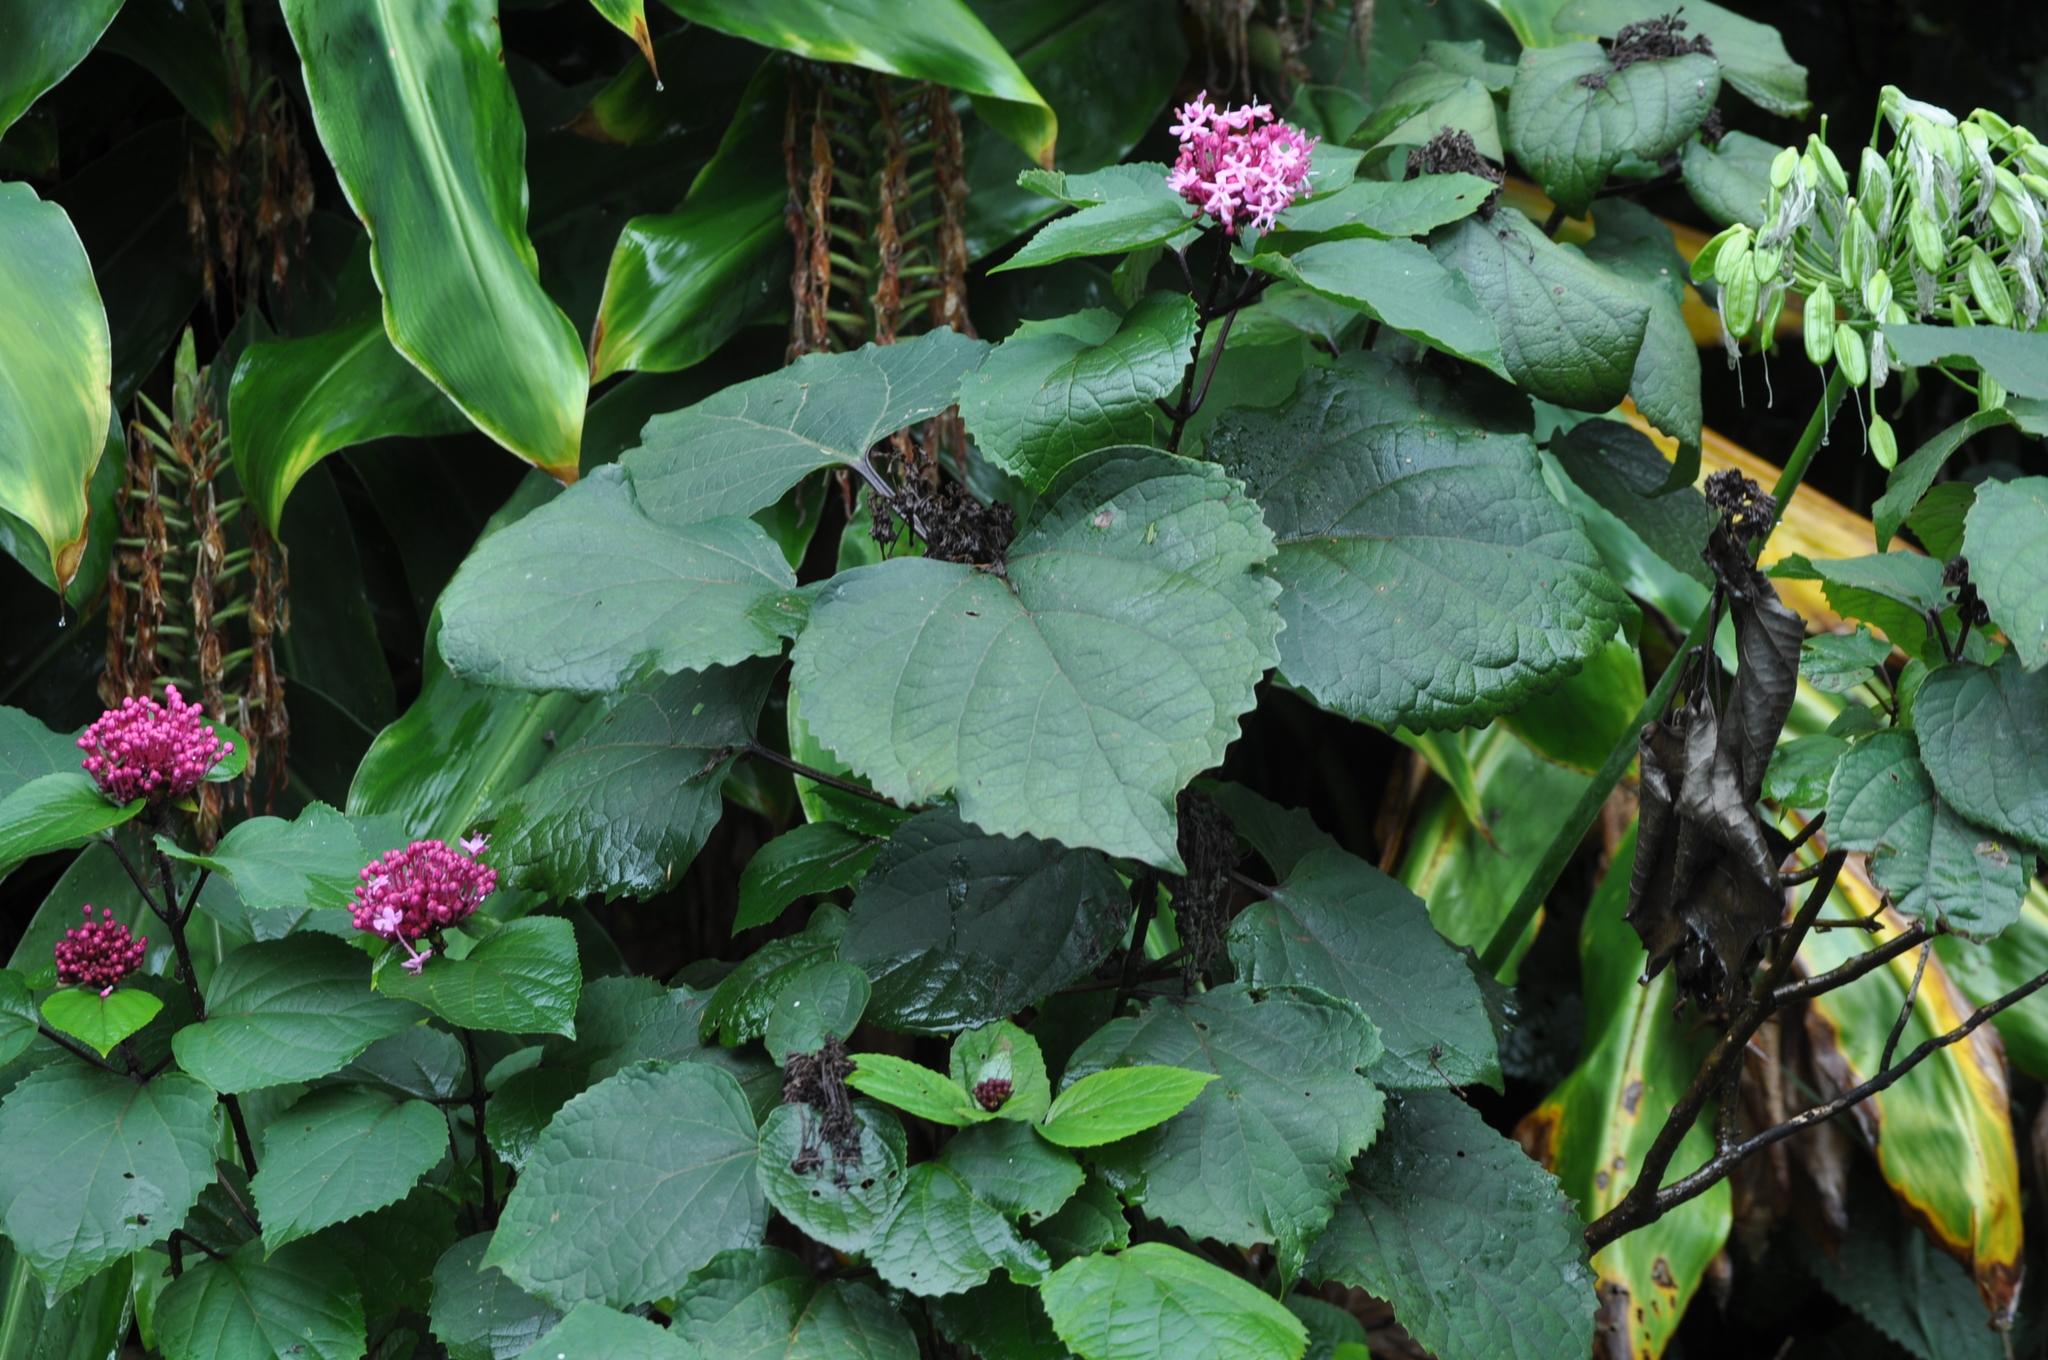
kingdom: Plantae
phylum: Tracheophyta
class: Magnoliopsida
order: Lamiales
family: Lamiaceae
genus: Clerodendrum
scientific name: Clerodendrum bungei
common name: Rose glorybower
